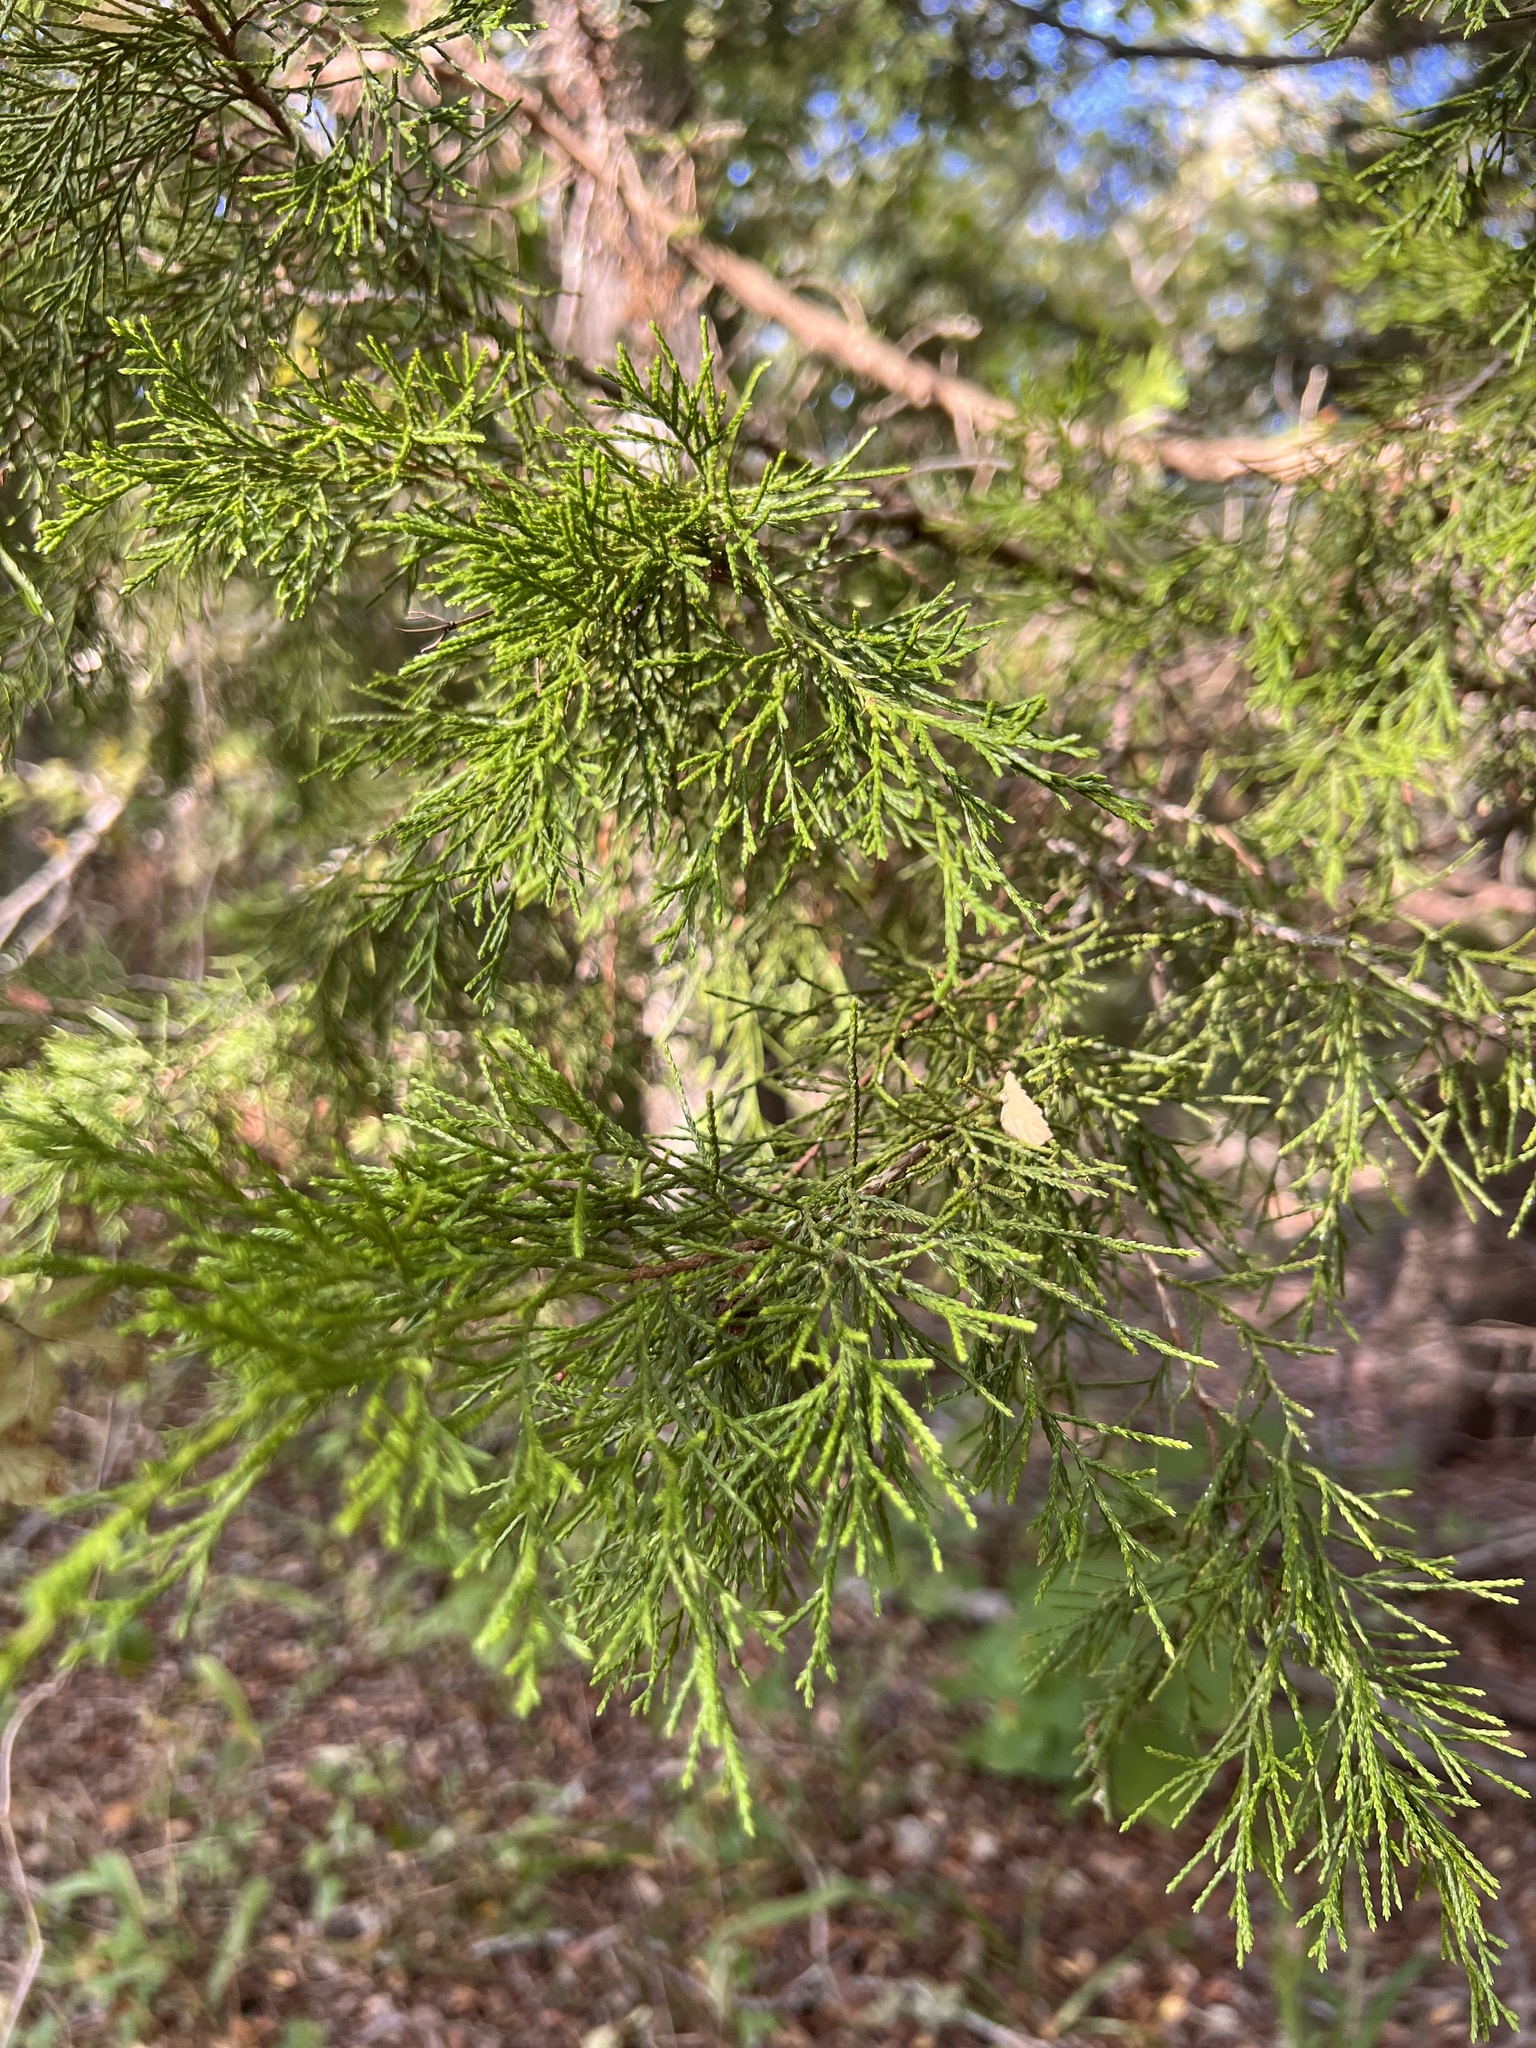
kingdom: Plantae
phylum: Tracheophyta
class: Pinopsida
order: Pinales
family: Cupressaceae
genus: Juniperus
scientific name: Juniperus virginiana
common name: Red juniper
